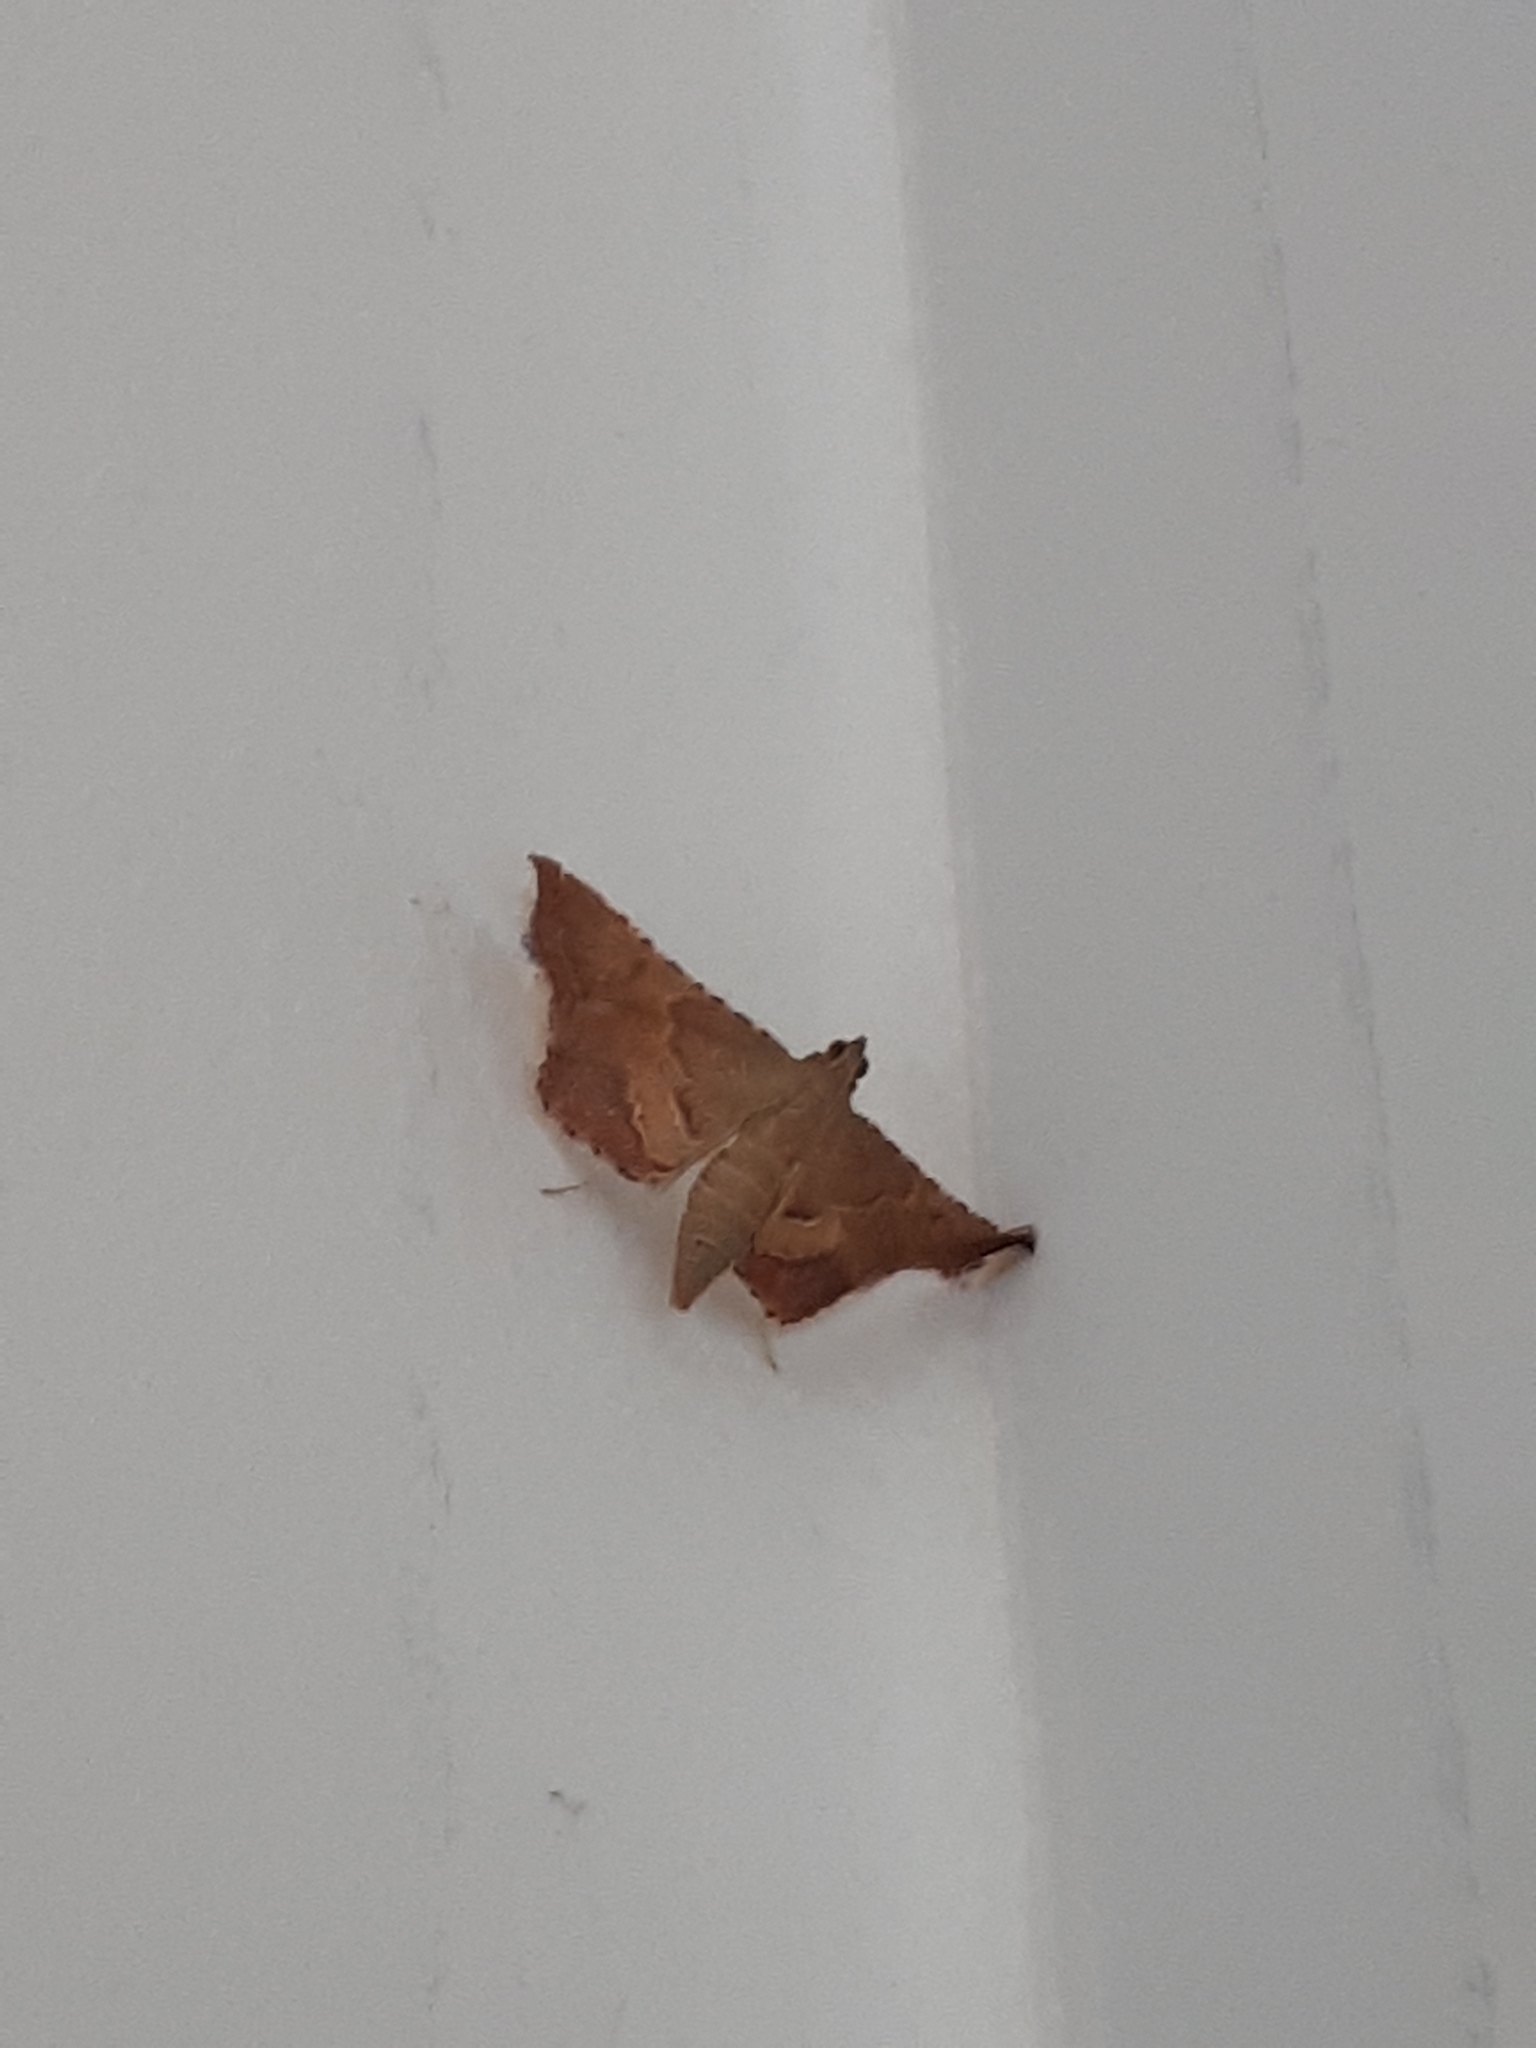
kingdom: Animalia
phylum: Arthropoda
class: Insecta
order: Lepidoptera
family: Pyralidae
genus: Endotricha
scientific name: Endotricha flammealis
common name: Rosy tabby
